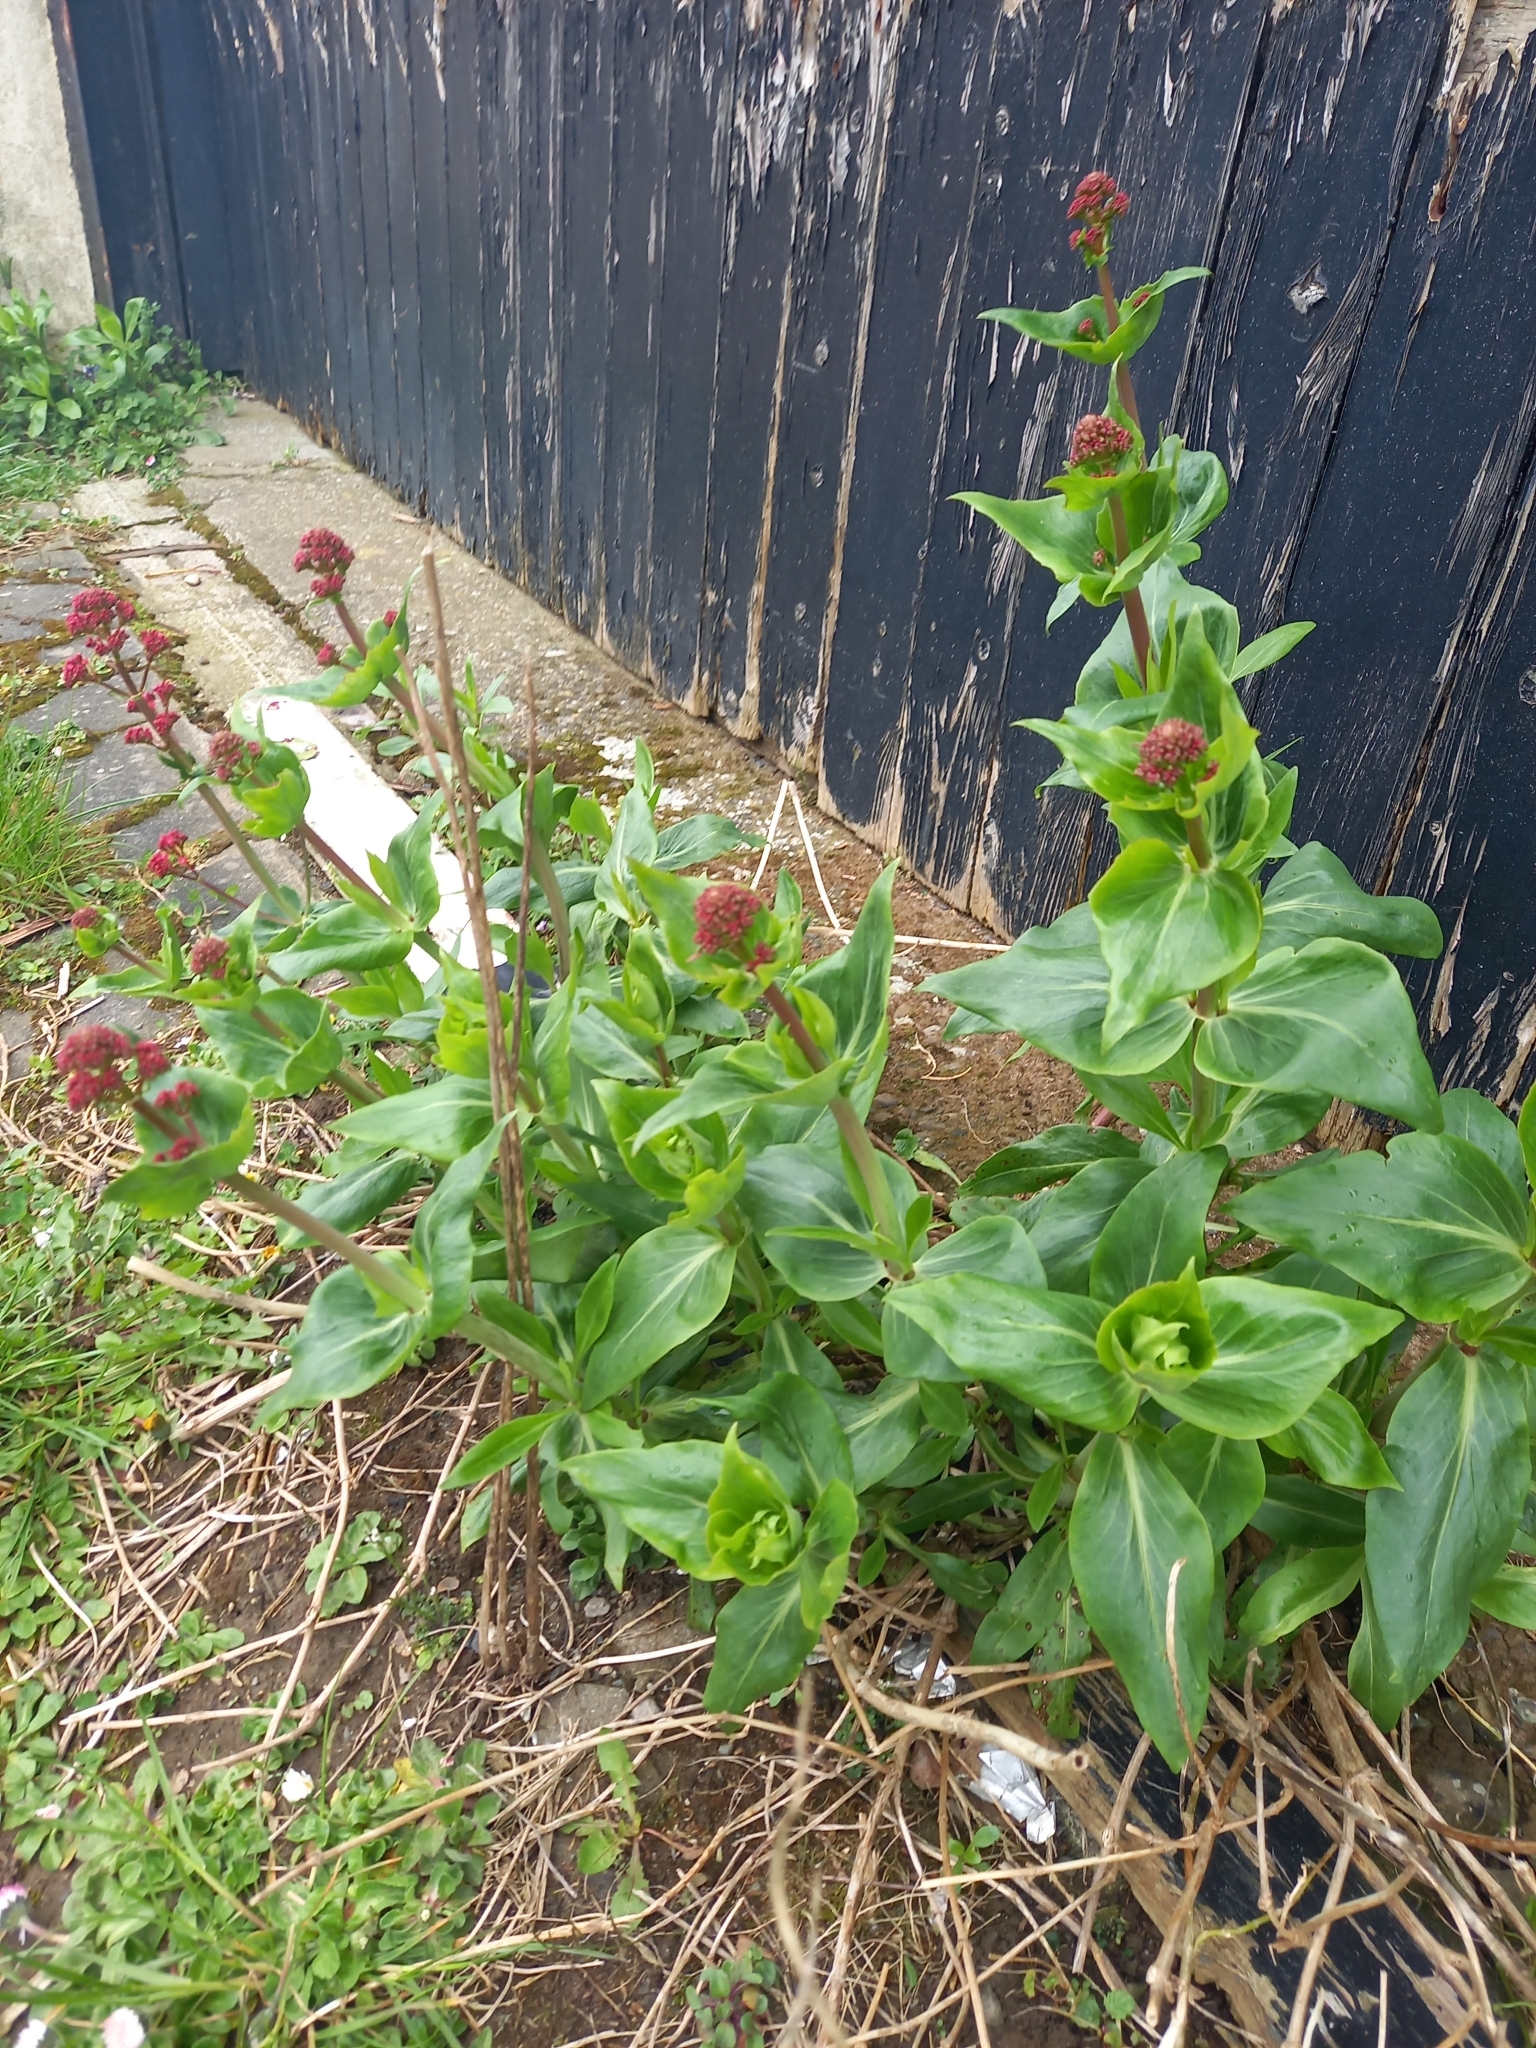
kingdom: Plantae
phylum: Tracheophyta
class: Magnoliopsida
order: Dipsacales
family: Caprifoliaceae
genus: Centranthus
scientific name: Centranthus ruber
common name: Red valerian
